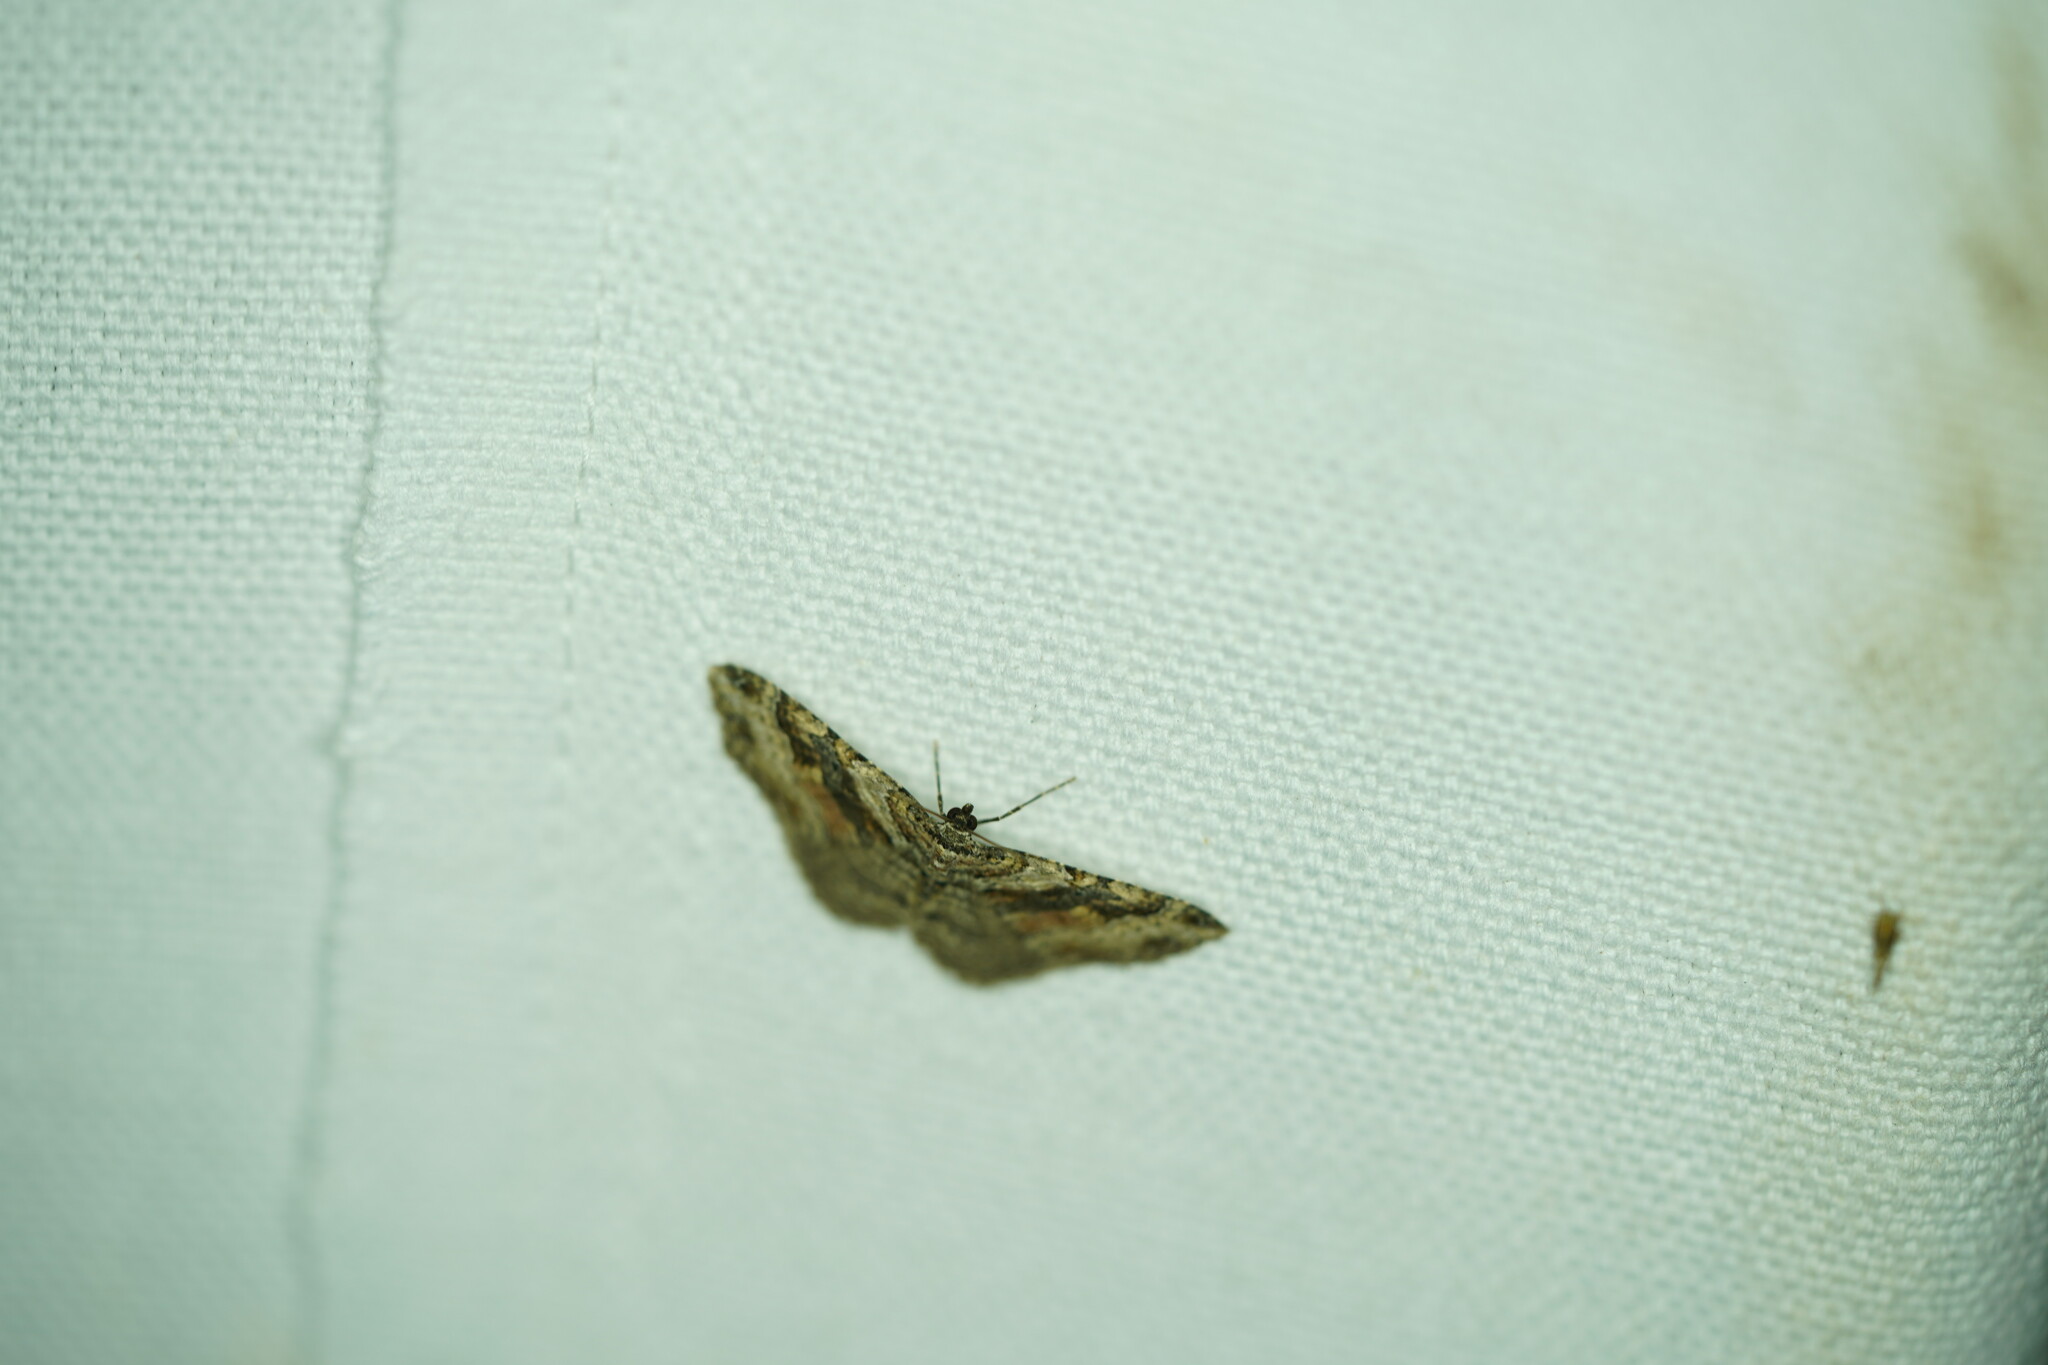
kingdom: Animalia
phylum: Arthropoda
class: Insecta
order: Lepidoptera
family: Geometridae
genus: Costaconvexa
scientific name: Costaconvexa centrostrigaria
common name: Bent-line carpet
